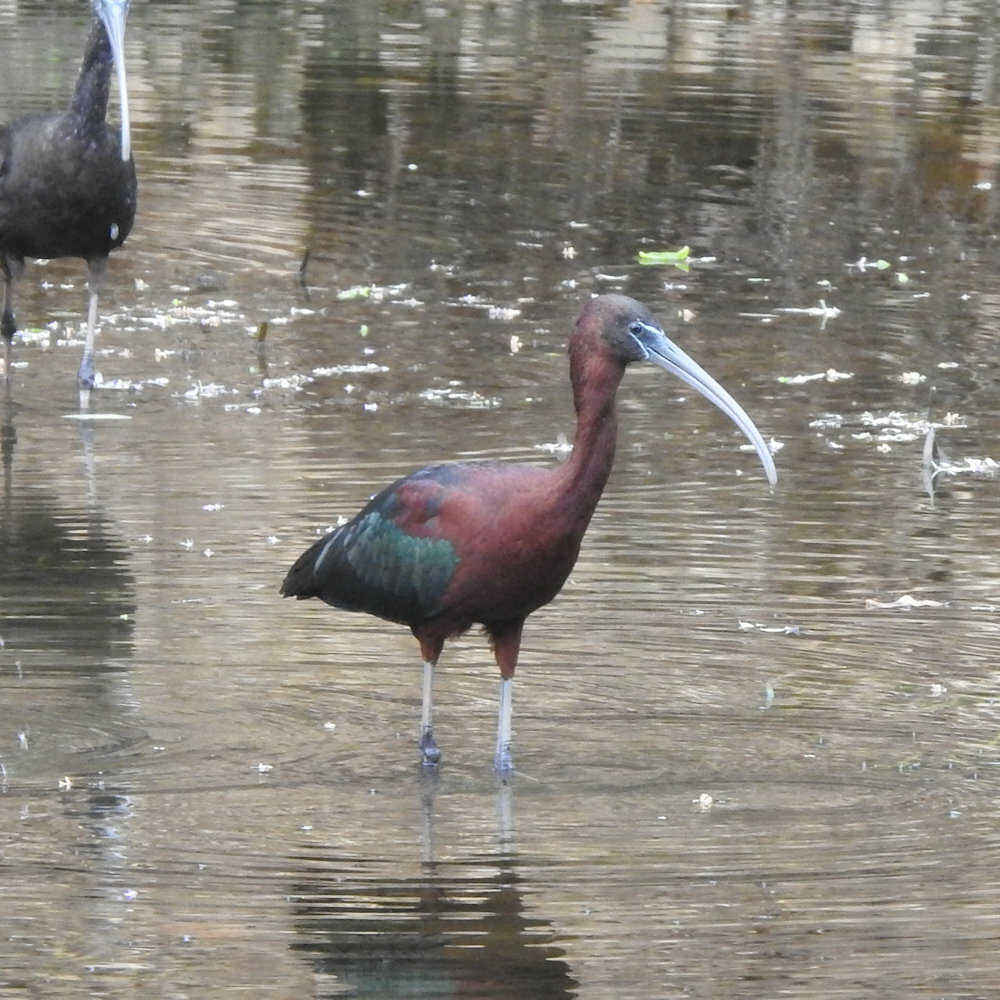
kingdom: Animalia
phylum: Chordata
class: Aves
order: Pelecaniformes
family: Threskiornithidae
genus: Plegadis
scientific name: Plegadis falcinellus
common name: Glossy ibis
